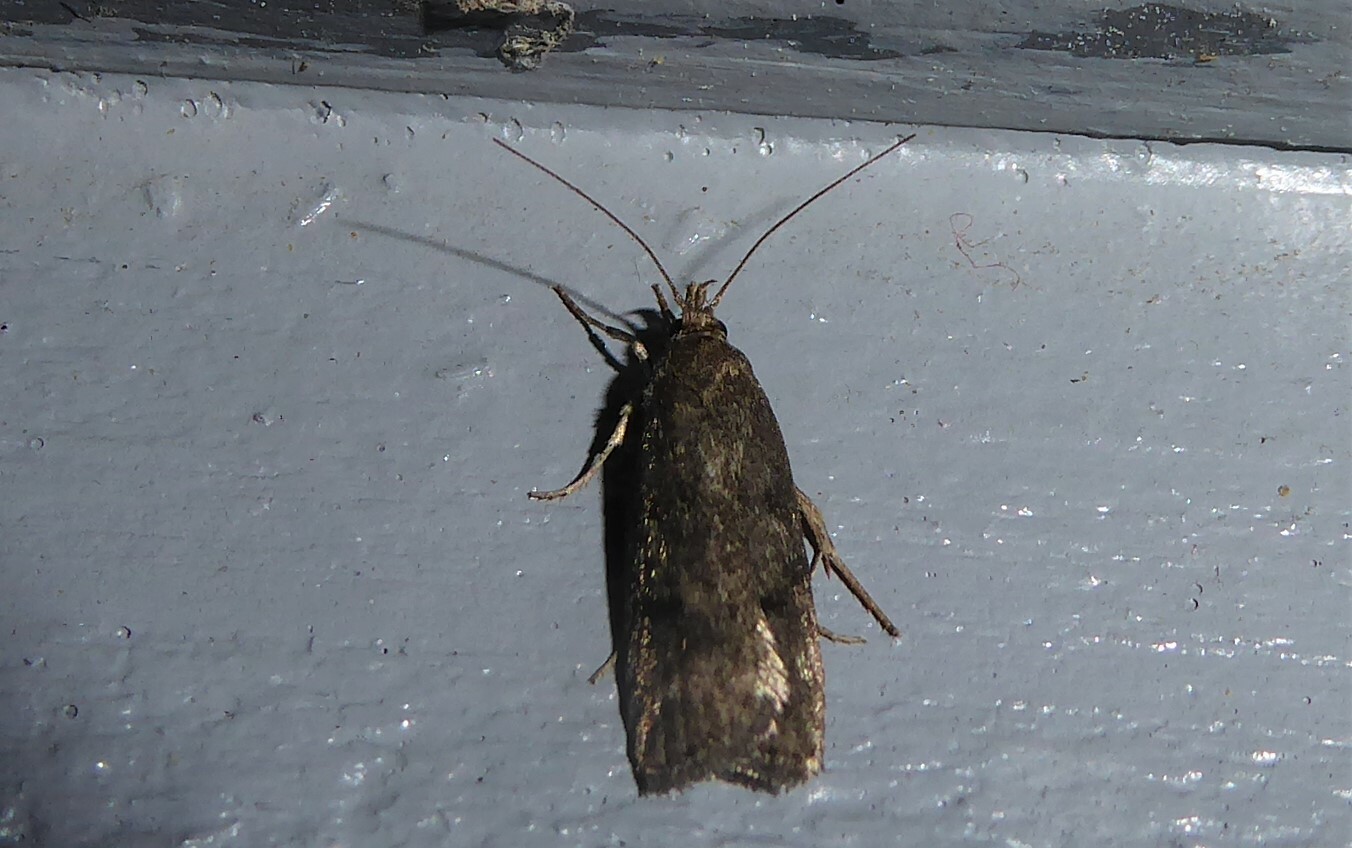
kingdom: Animalia
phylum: Arthropoda
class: Insecta
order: Lepidoptera
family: Depressariidae
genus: Phaeosaces
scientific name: Phaeosaces apocrypta
